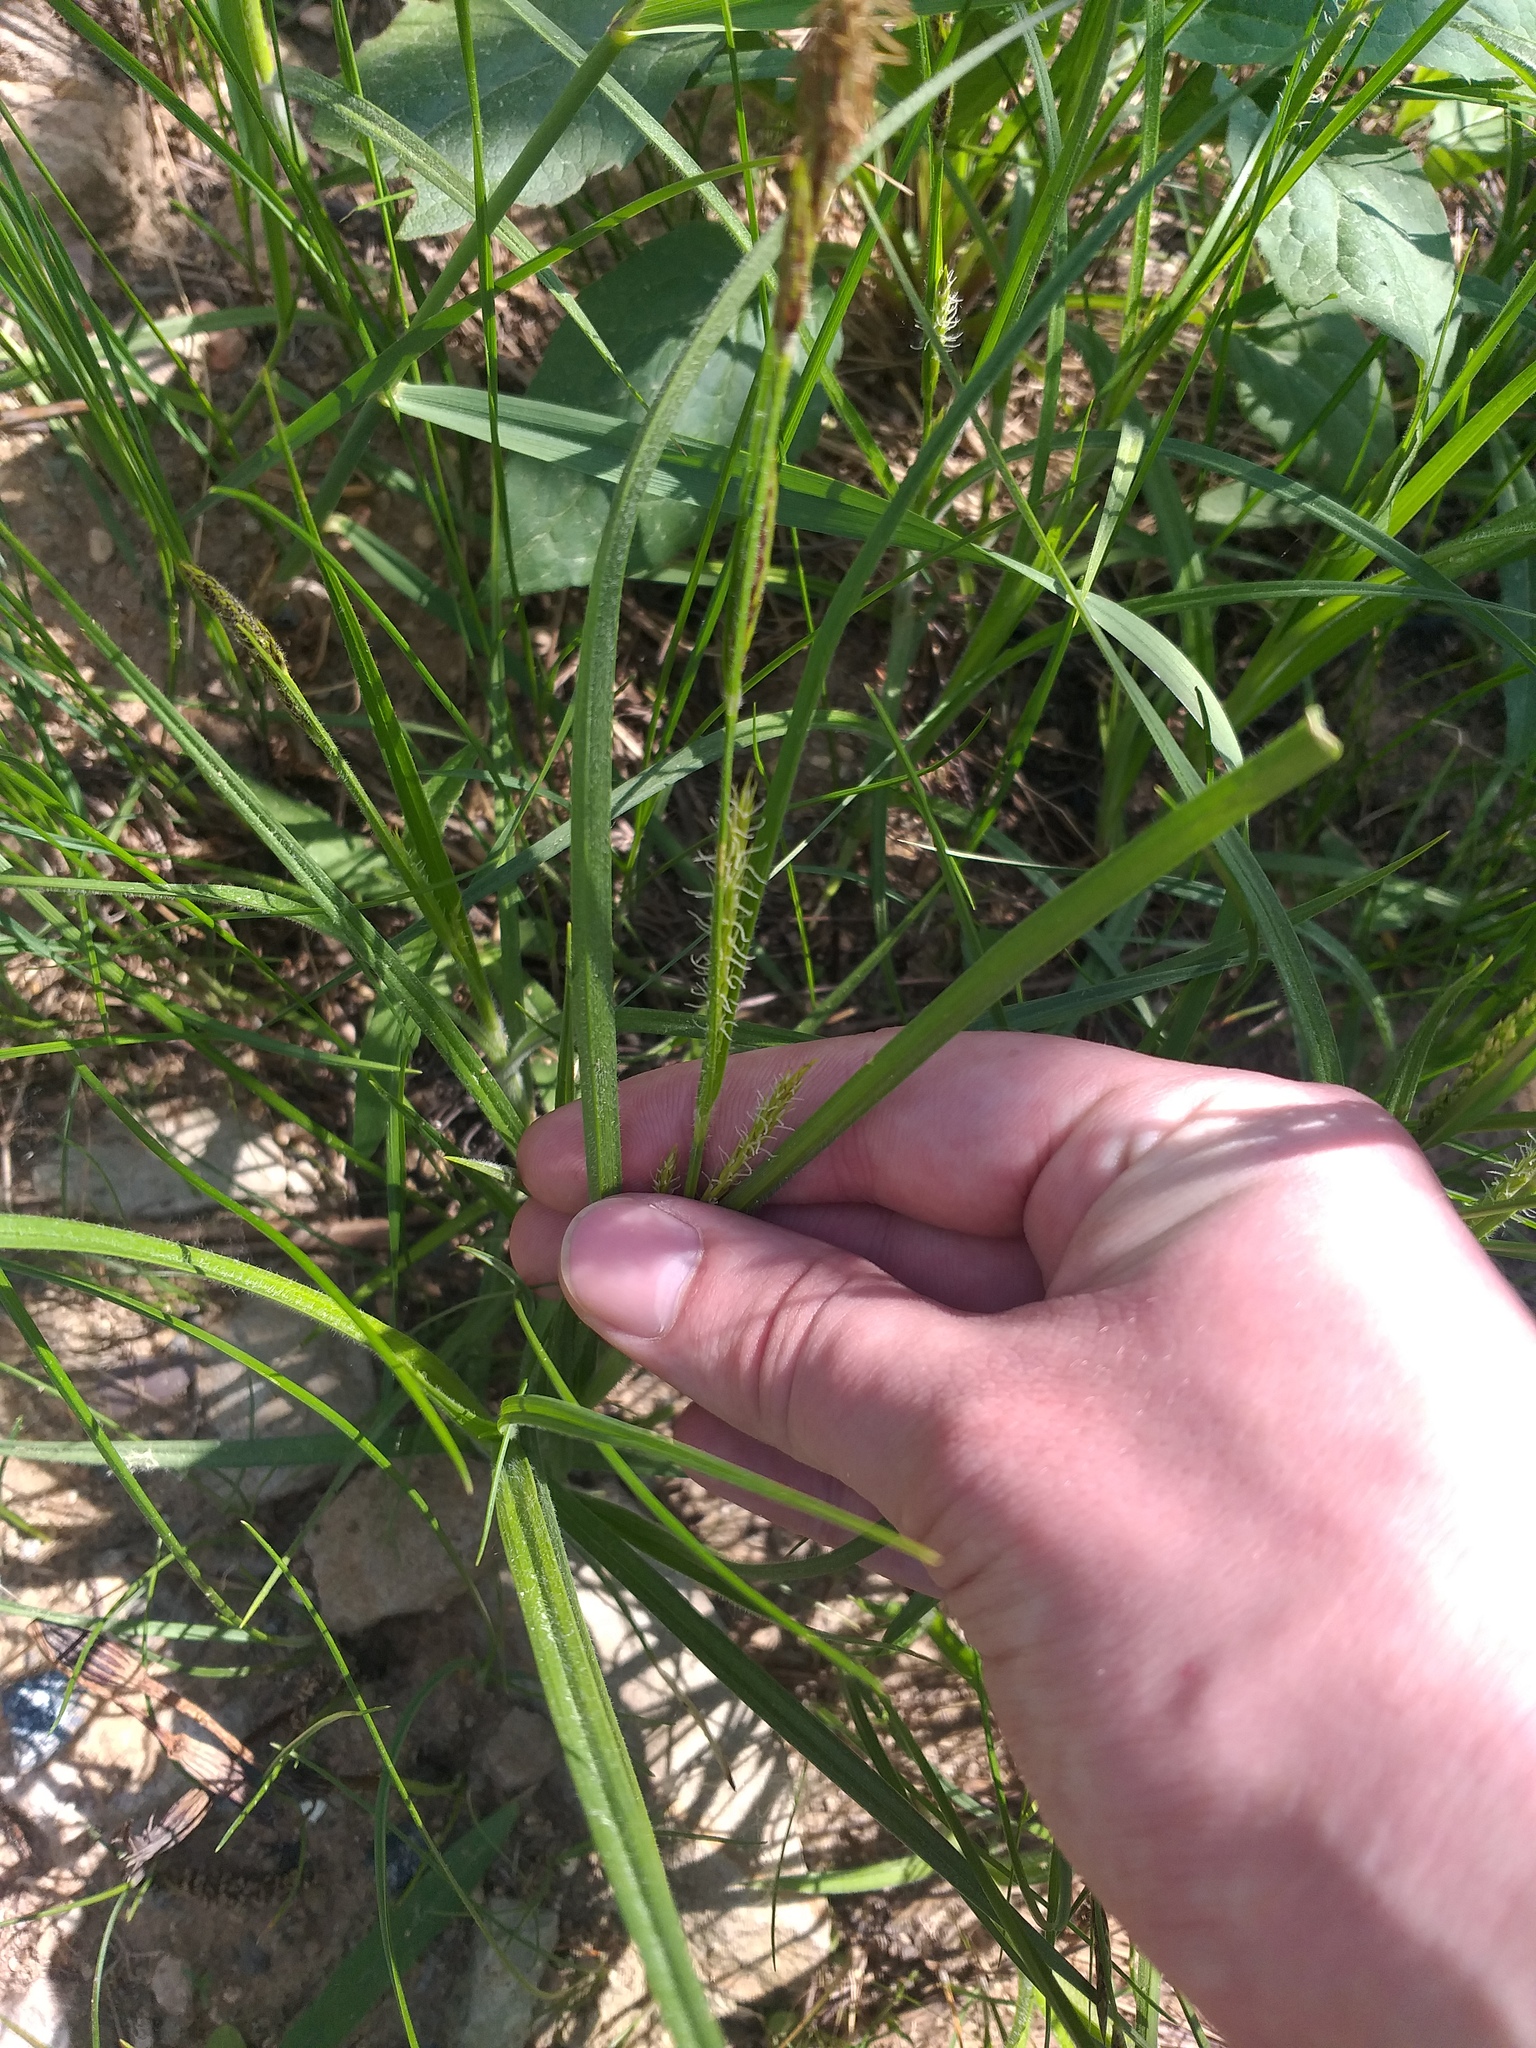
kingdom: Plantae
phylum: Tracheophyta
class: Liliopsida
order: Poales
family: Cyperaceae
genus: Carex
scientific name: Carex hirta
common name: Hairy sedge
